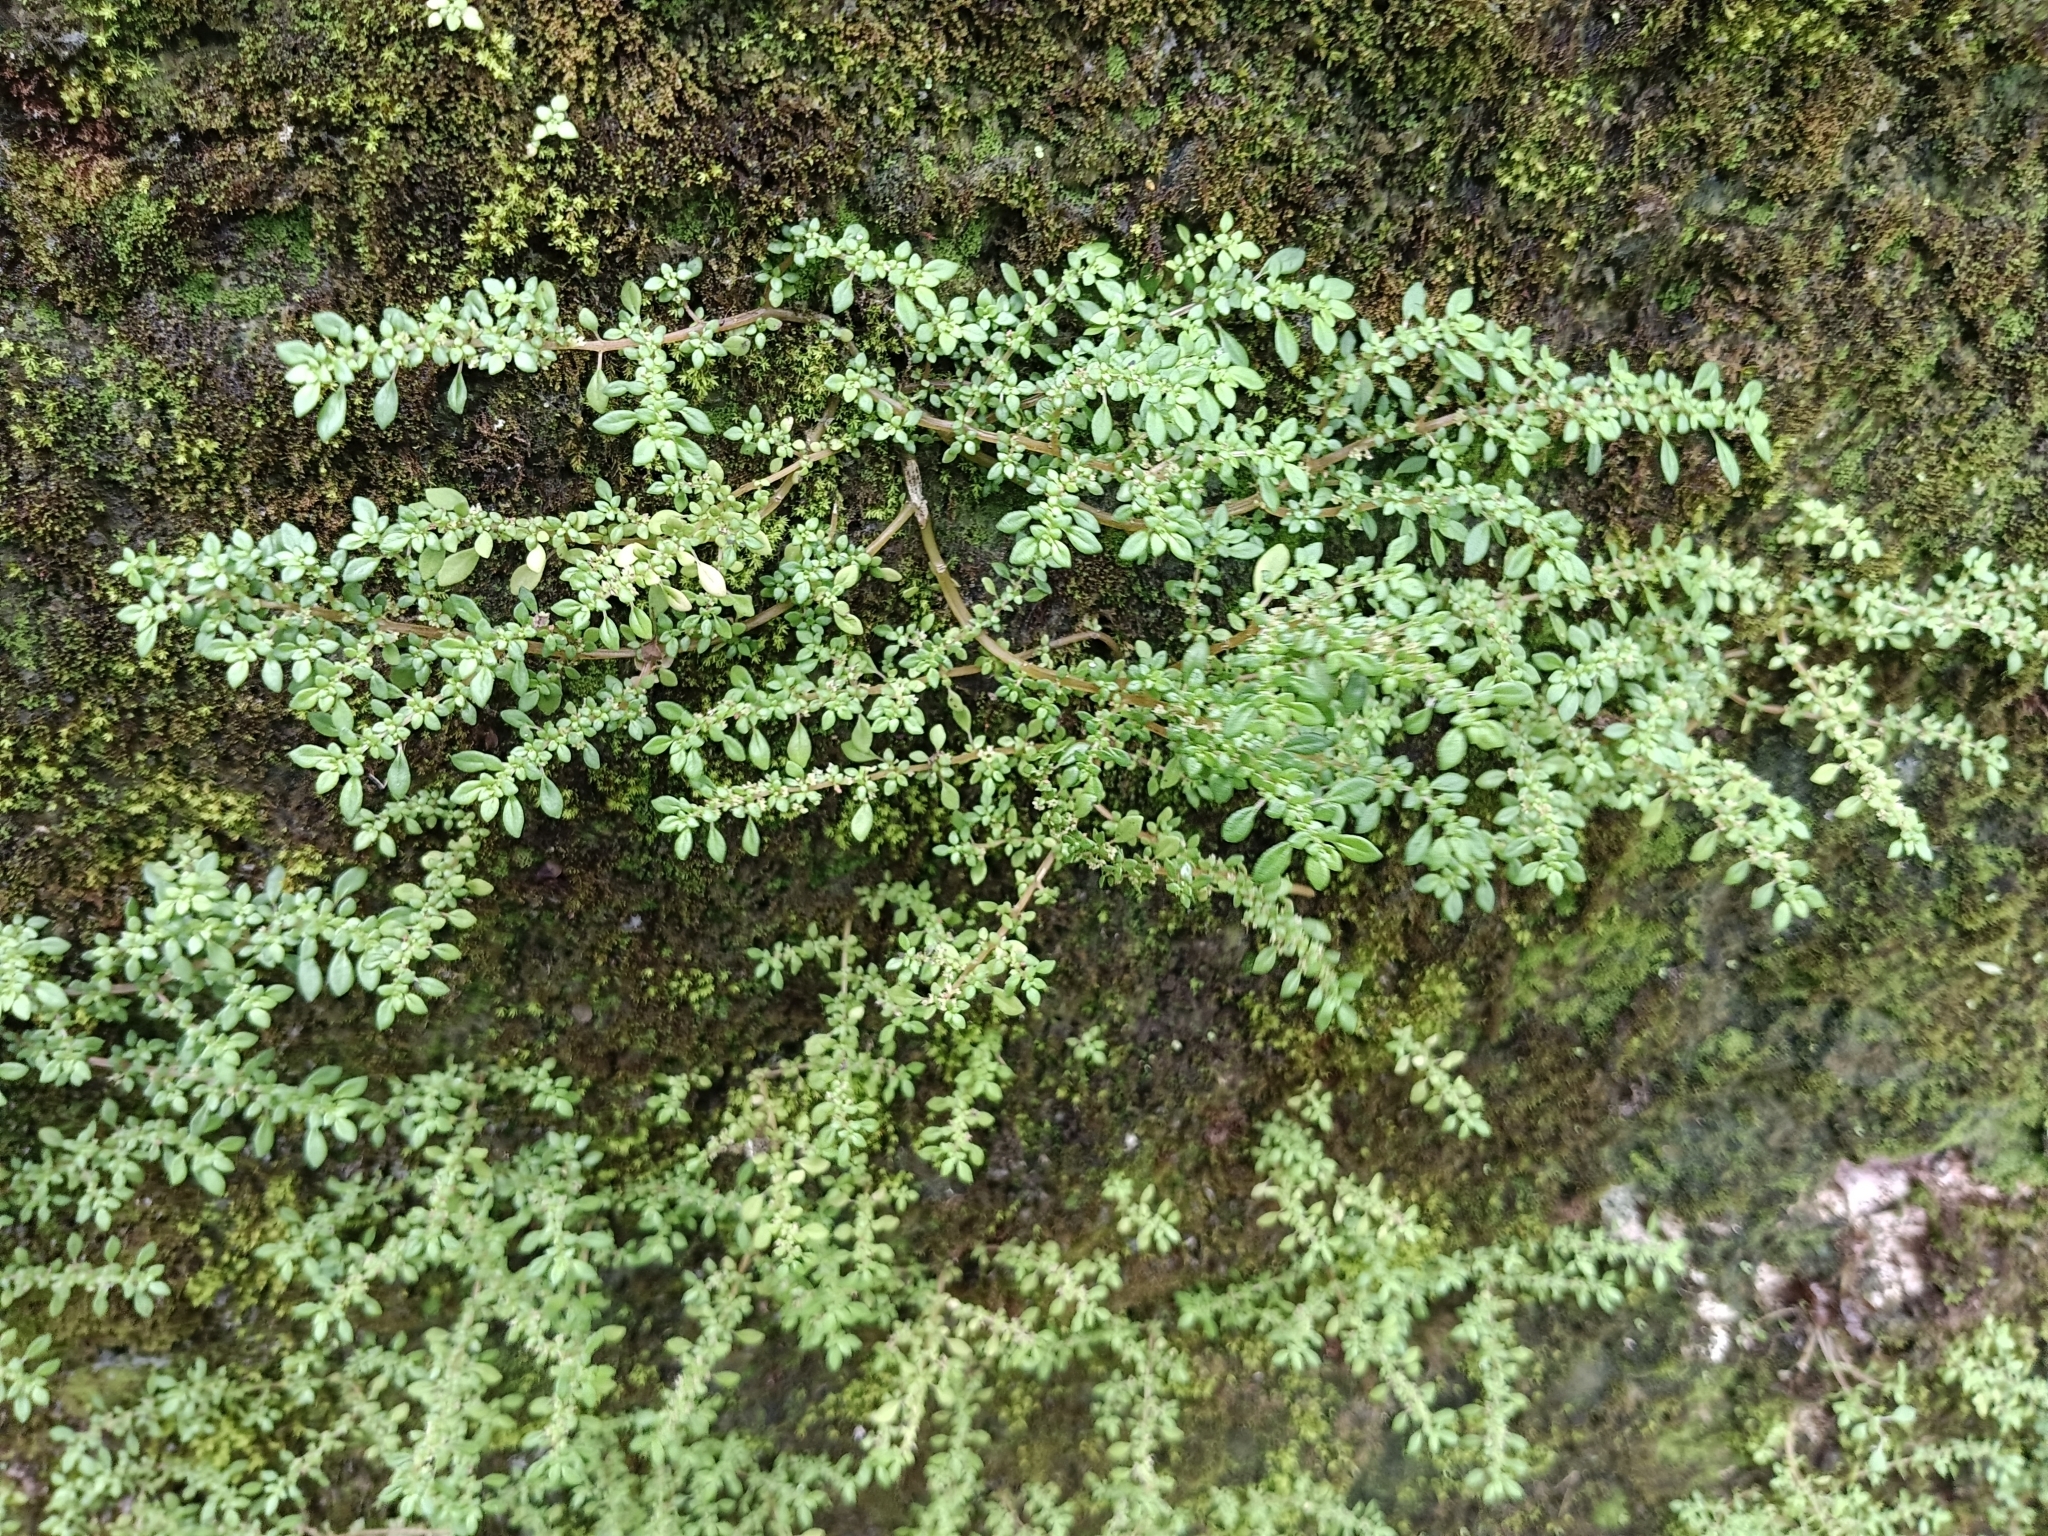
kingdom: Plantae
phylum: Tracheophyta
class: Magnoliopsida
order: Rosales
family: Urticaceae
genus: Pilea
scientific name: Pilea microphylla
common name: Artillery-plant
